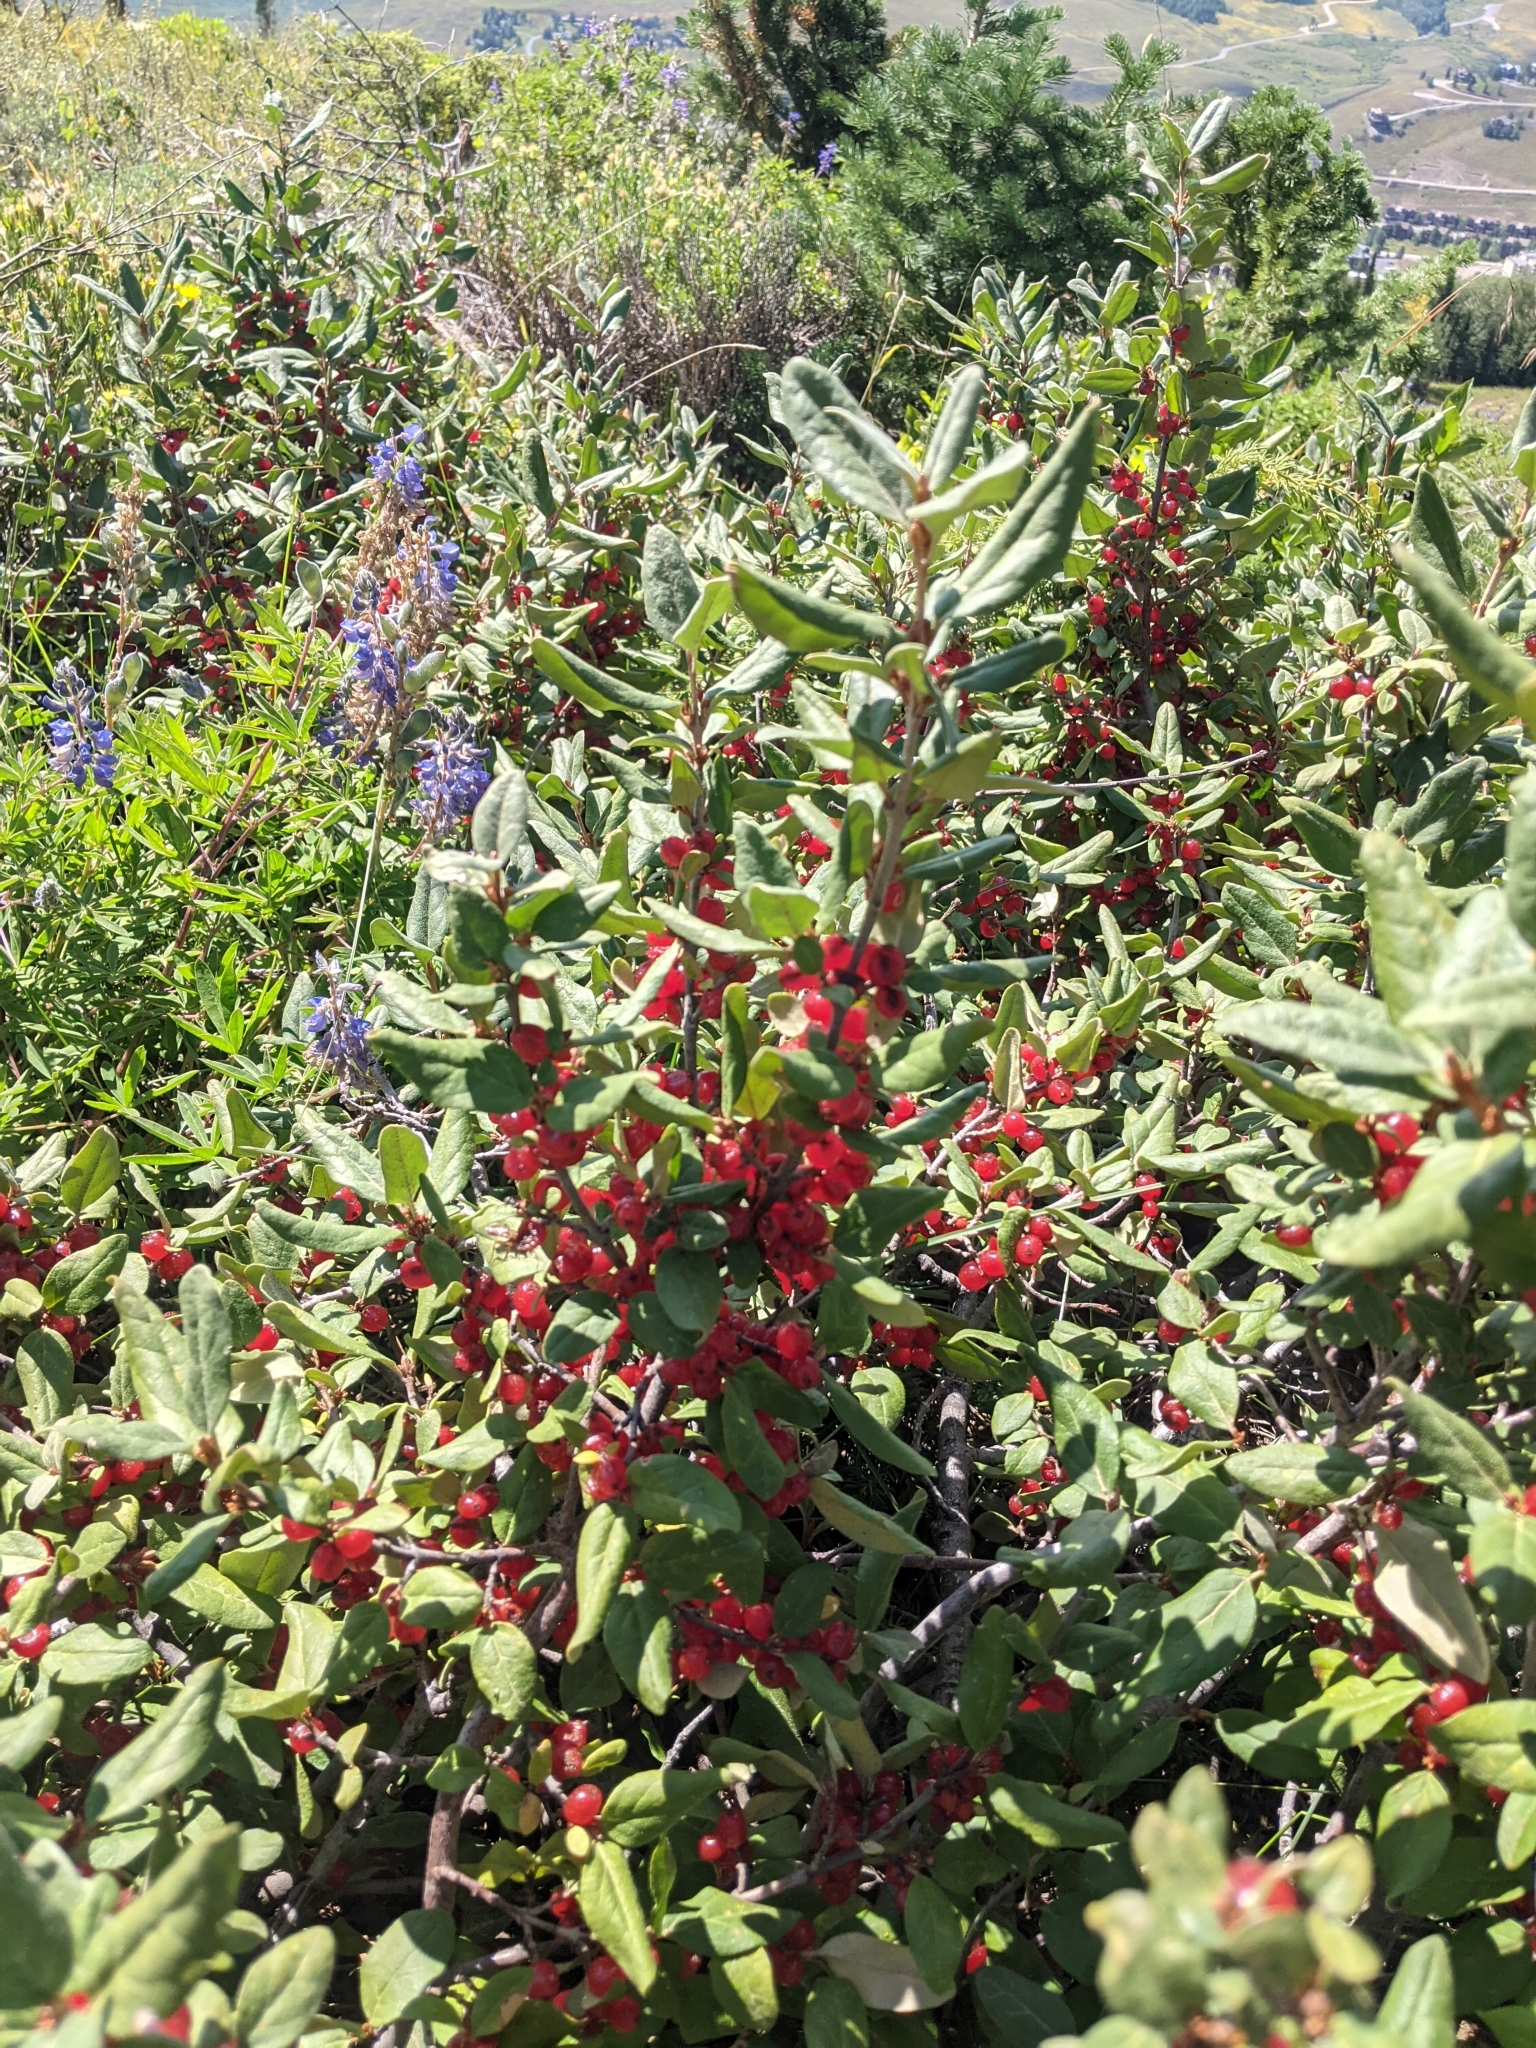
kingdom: Plantae
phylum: Tracheophyta
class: Magnoliopsida
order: Rosales
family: Elaeagnaceae
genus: Shepherdia
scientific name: Shepherdia canadensis
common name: Soapberry
